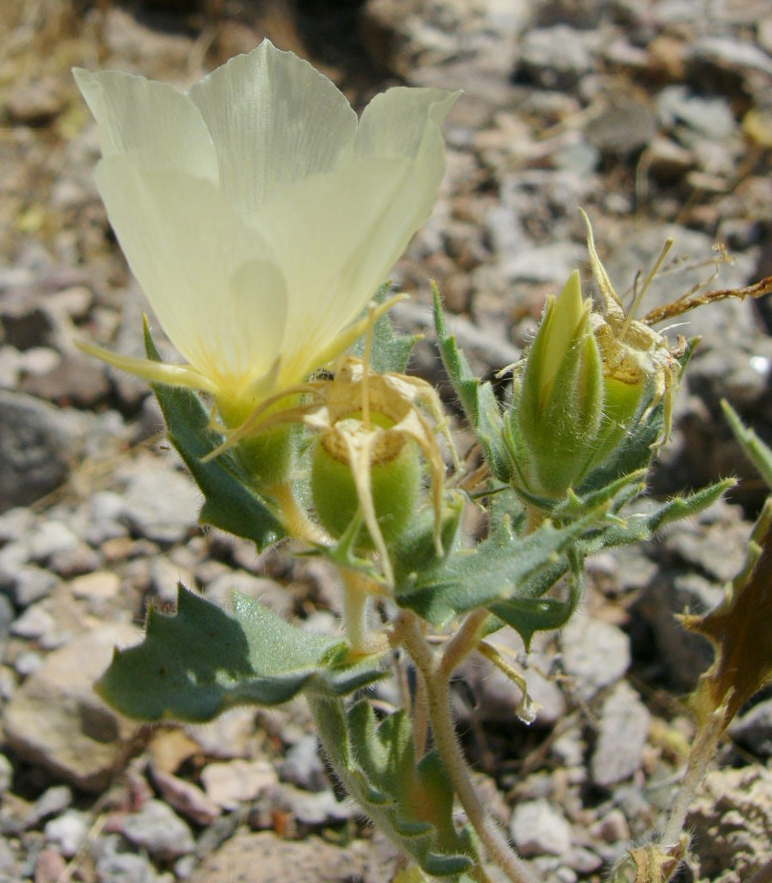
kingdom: Plantae
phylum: Tracheophyta
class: Magnoliopsida
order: Cornales
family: Loasaceae
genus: Mentzelia
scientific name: Mentzelia tricuspis
